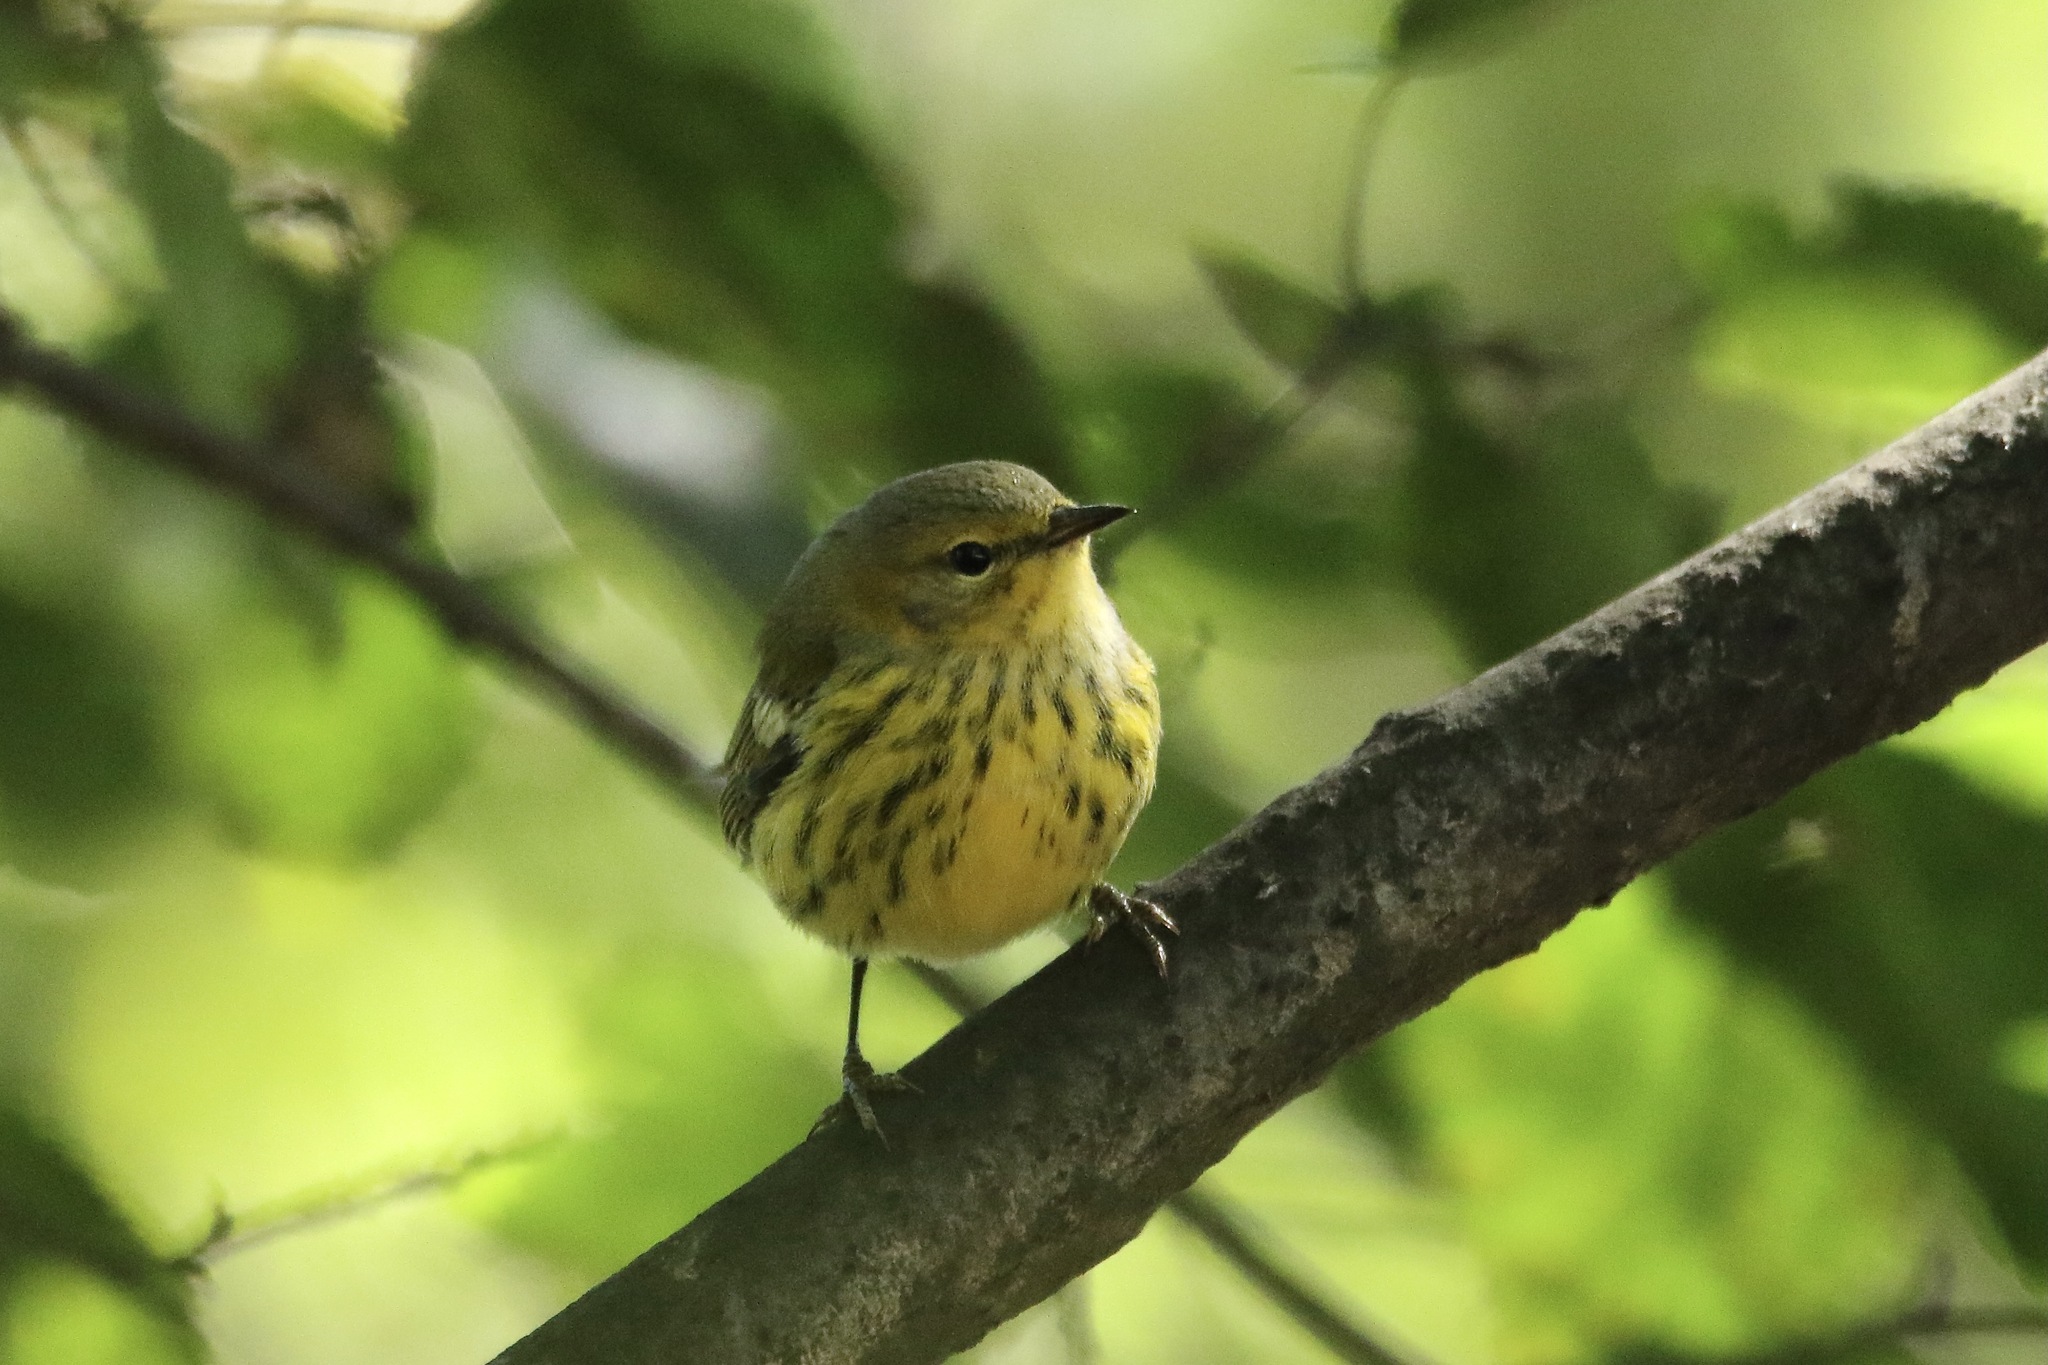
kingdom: Animalia
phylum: Chordata
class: Aves
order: Passeriformes
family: Parulidae
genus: Setophaga
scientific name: Setophaga tigrina
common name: Cape may warbler
